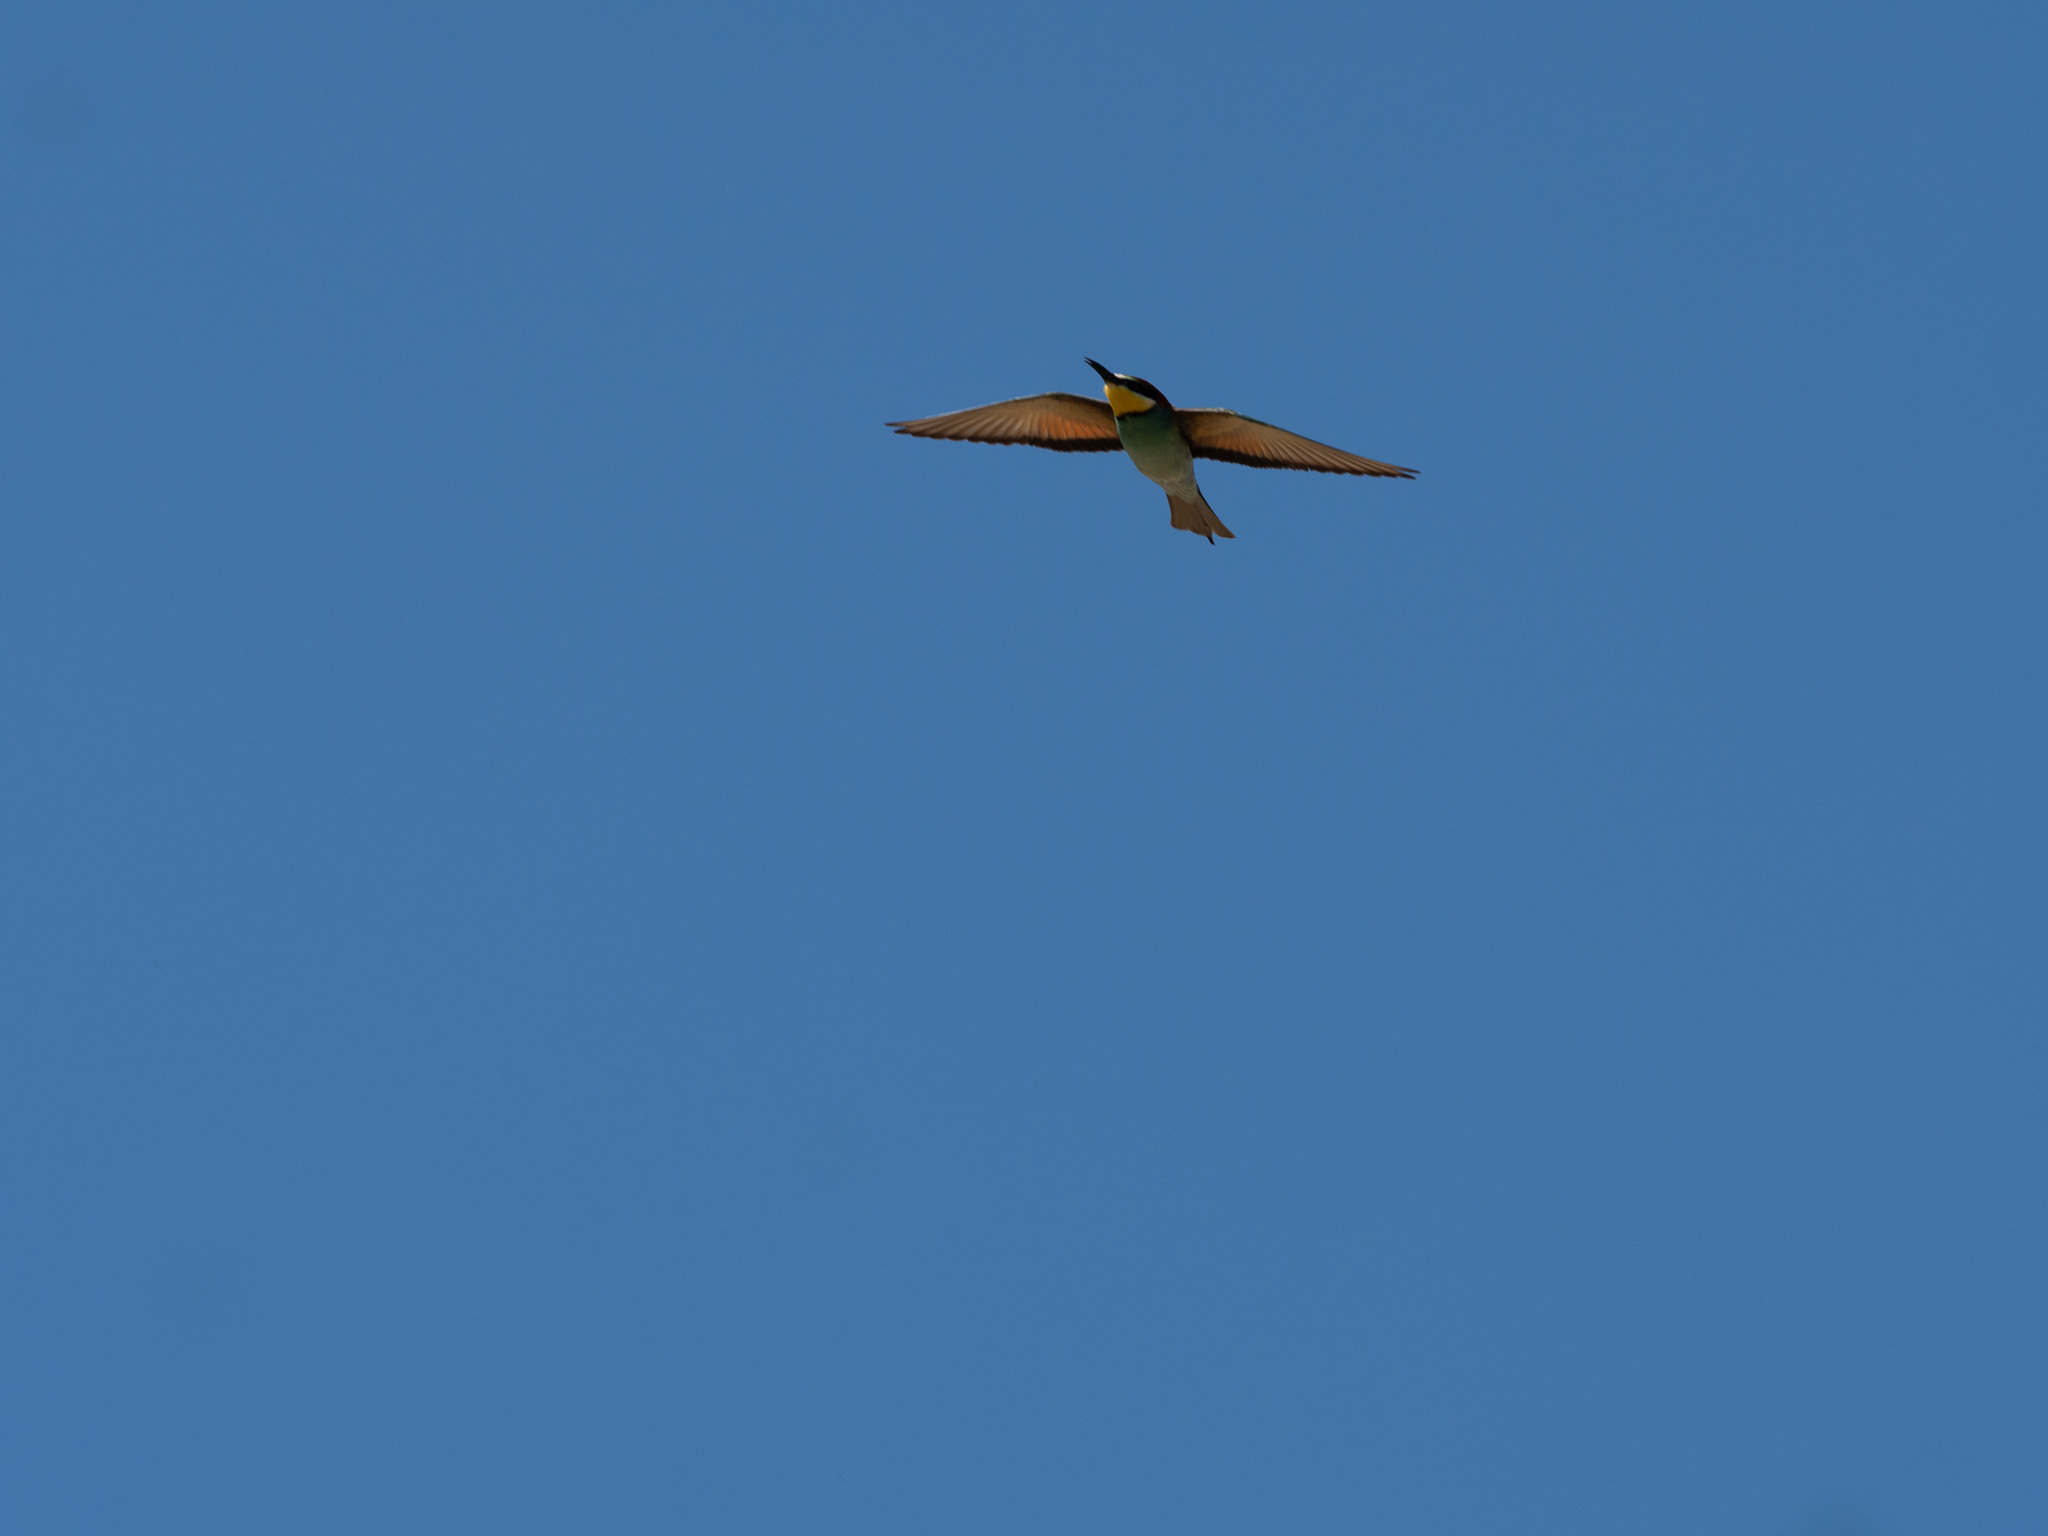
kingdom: Animalia
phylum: Chordata
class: Aves
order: Coraciiformes
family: Meropidae
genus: Merops
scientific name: Merops apiaster
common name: European bee-eater
